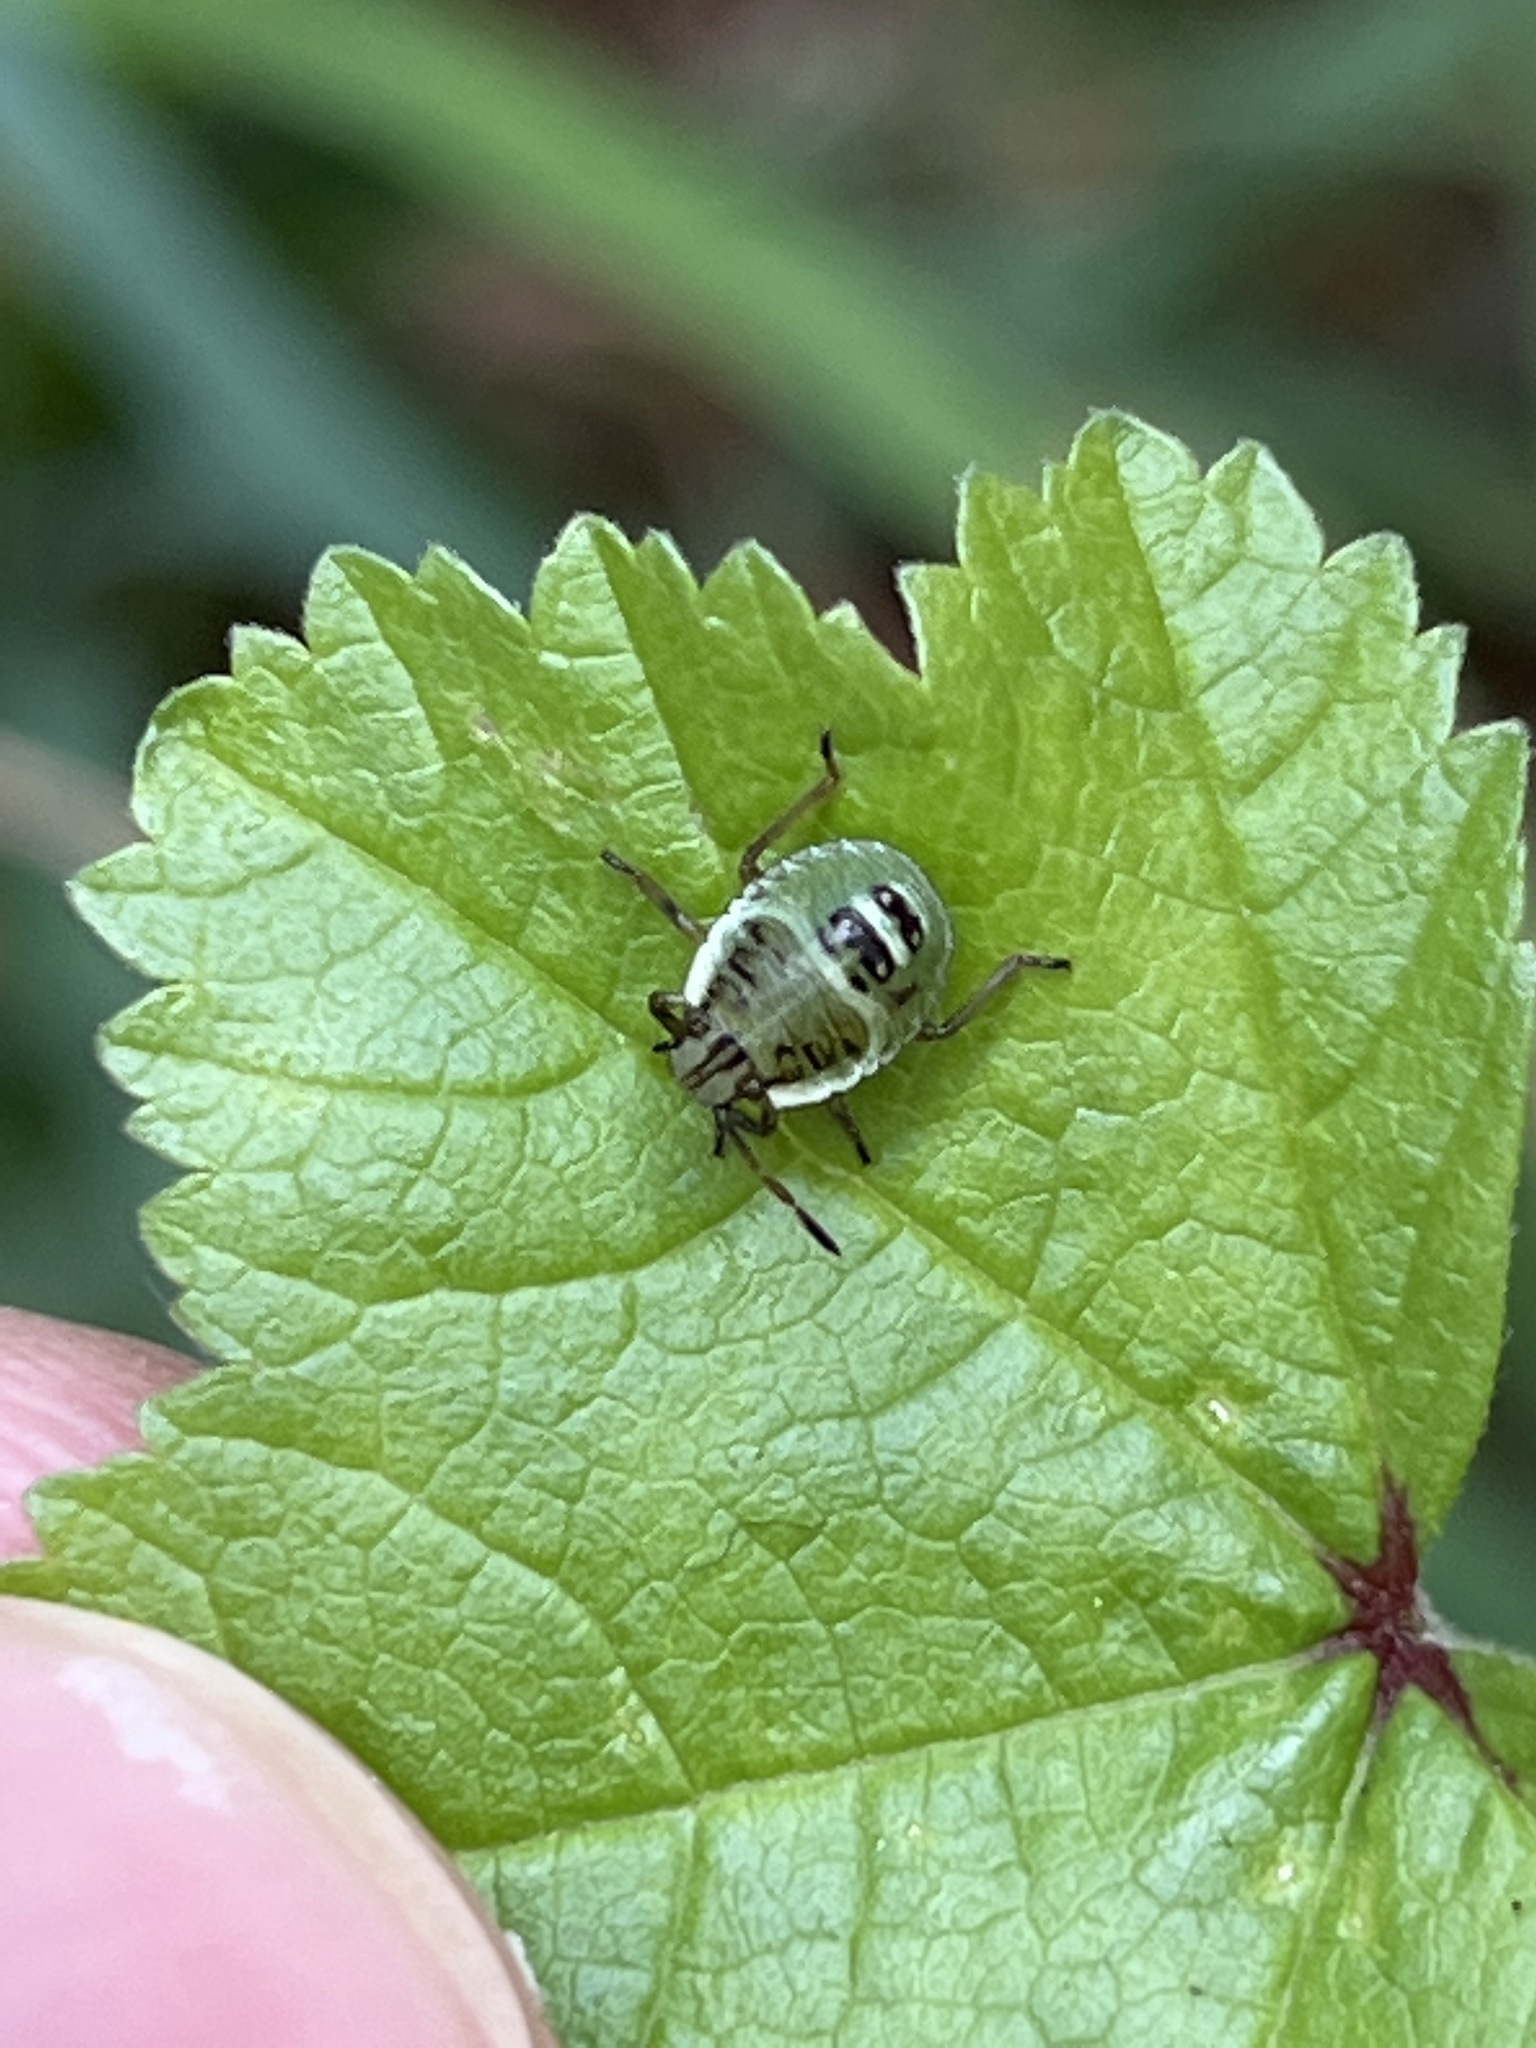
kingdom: Animalia
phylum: Arthropoda
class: Insecta
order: Hemiptera
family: Pentatomidae
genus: Palomena
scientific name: Palomena prasina
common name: Green shieldbug
